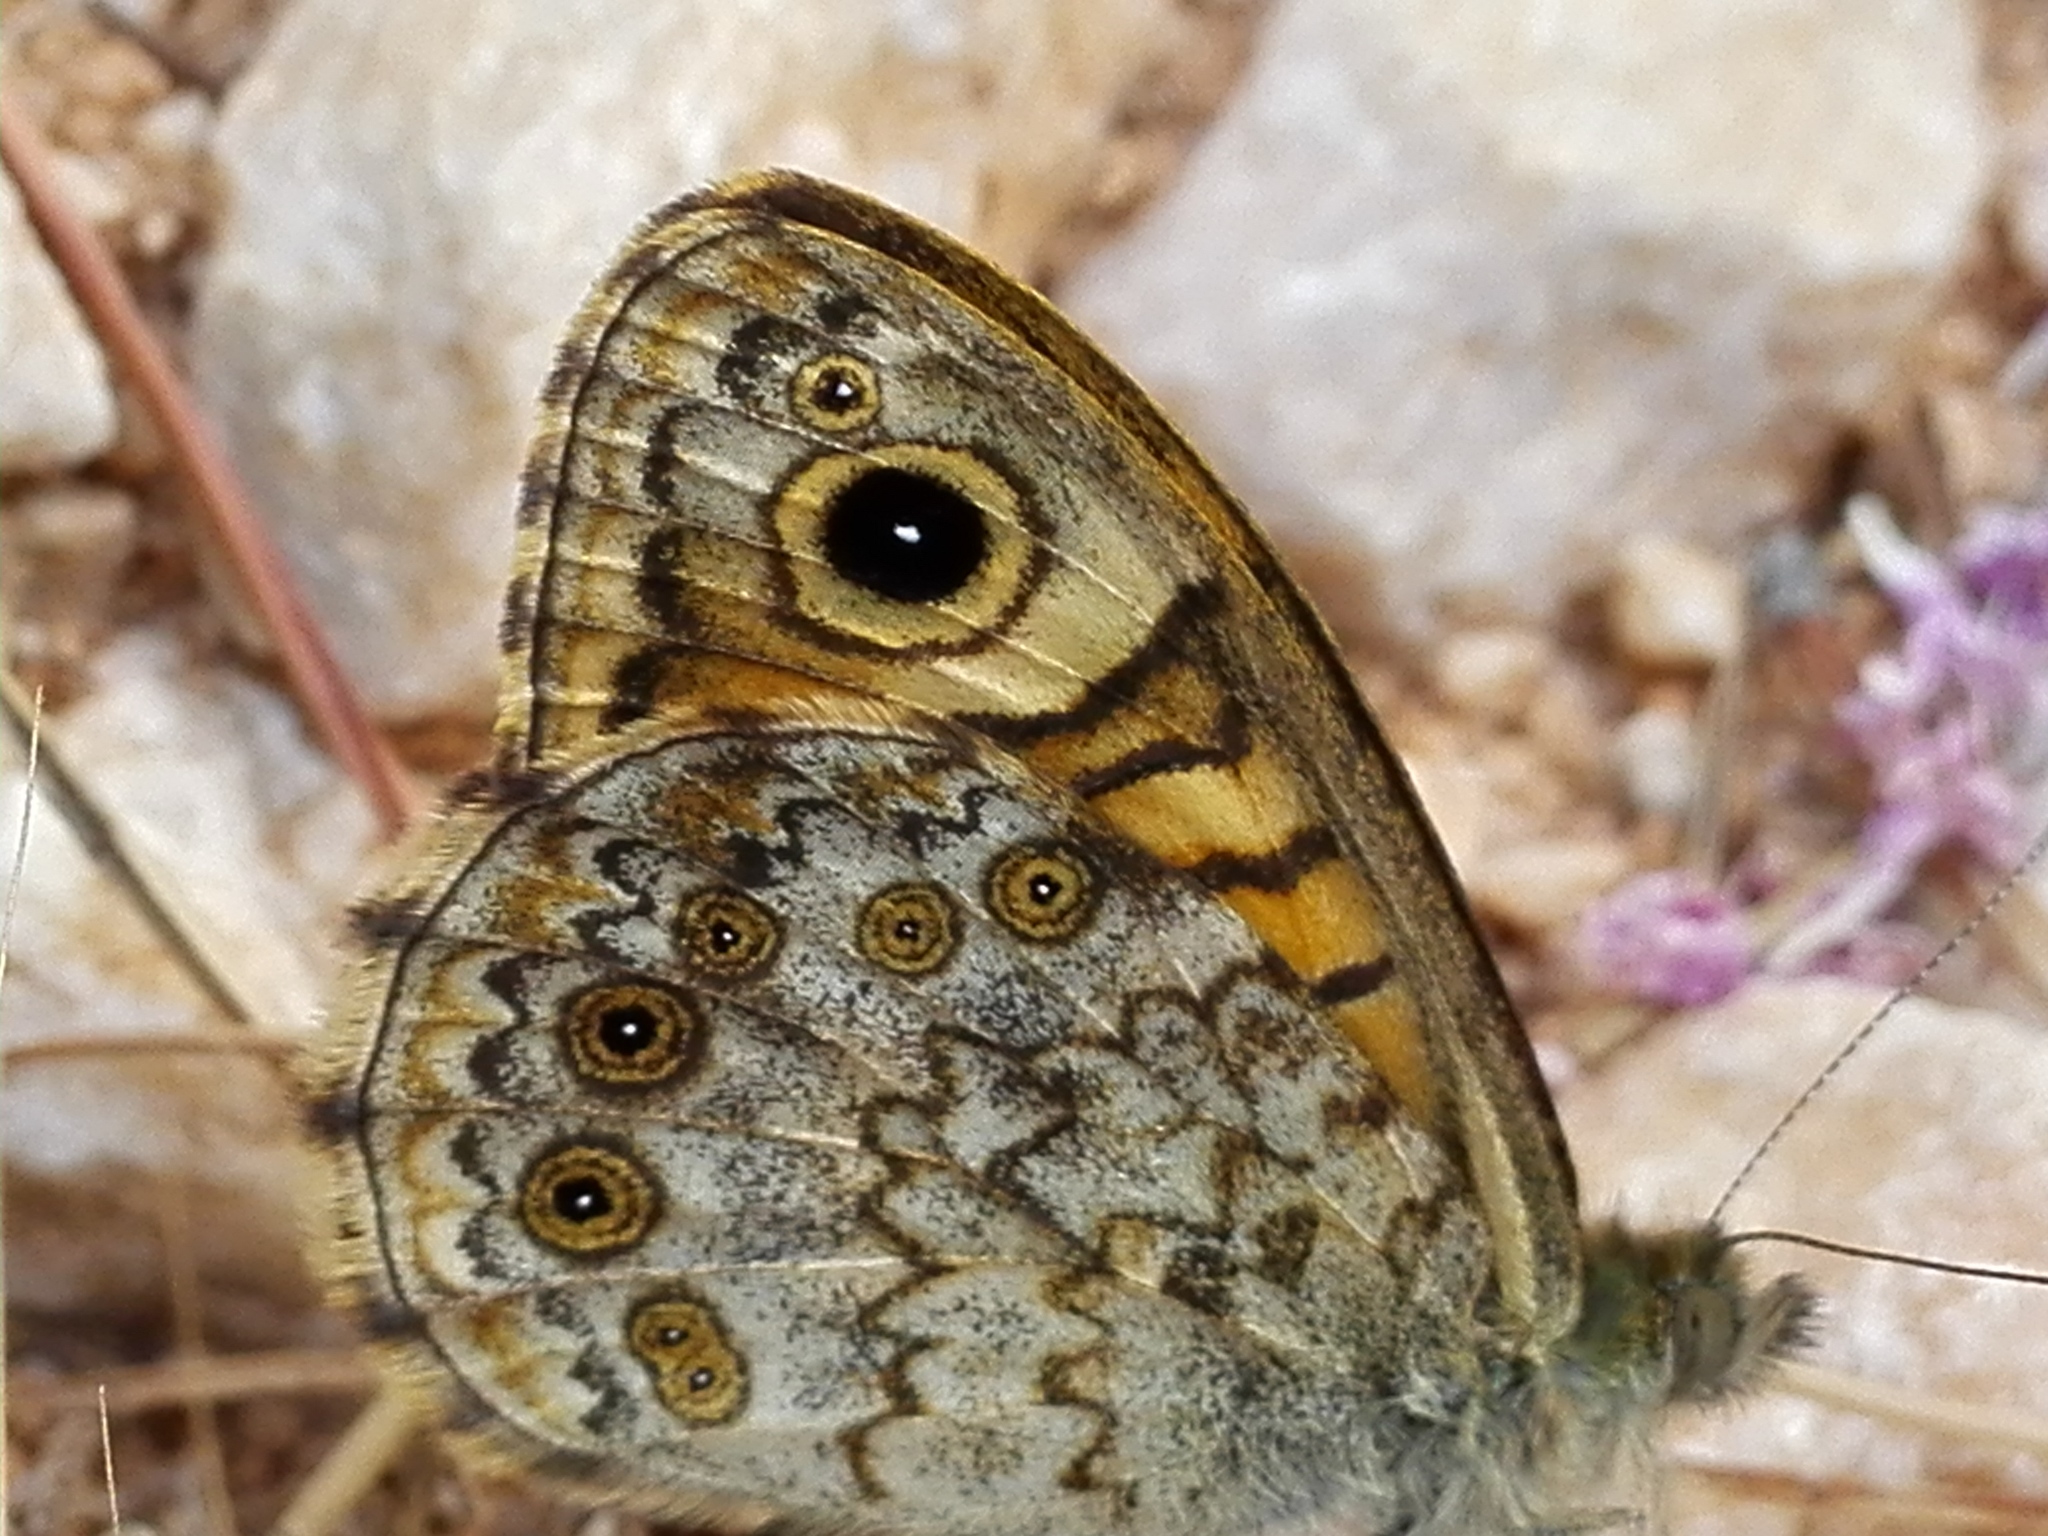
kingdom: Animalia
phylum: Arthropoda
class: Insecta
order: Lepidoptera
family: Nymphalidae
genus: Pararge
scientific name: Pararge Lasiommata megera
